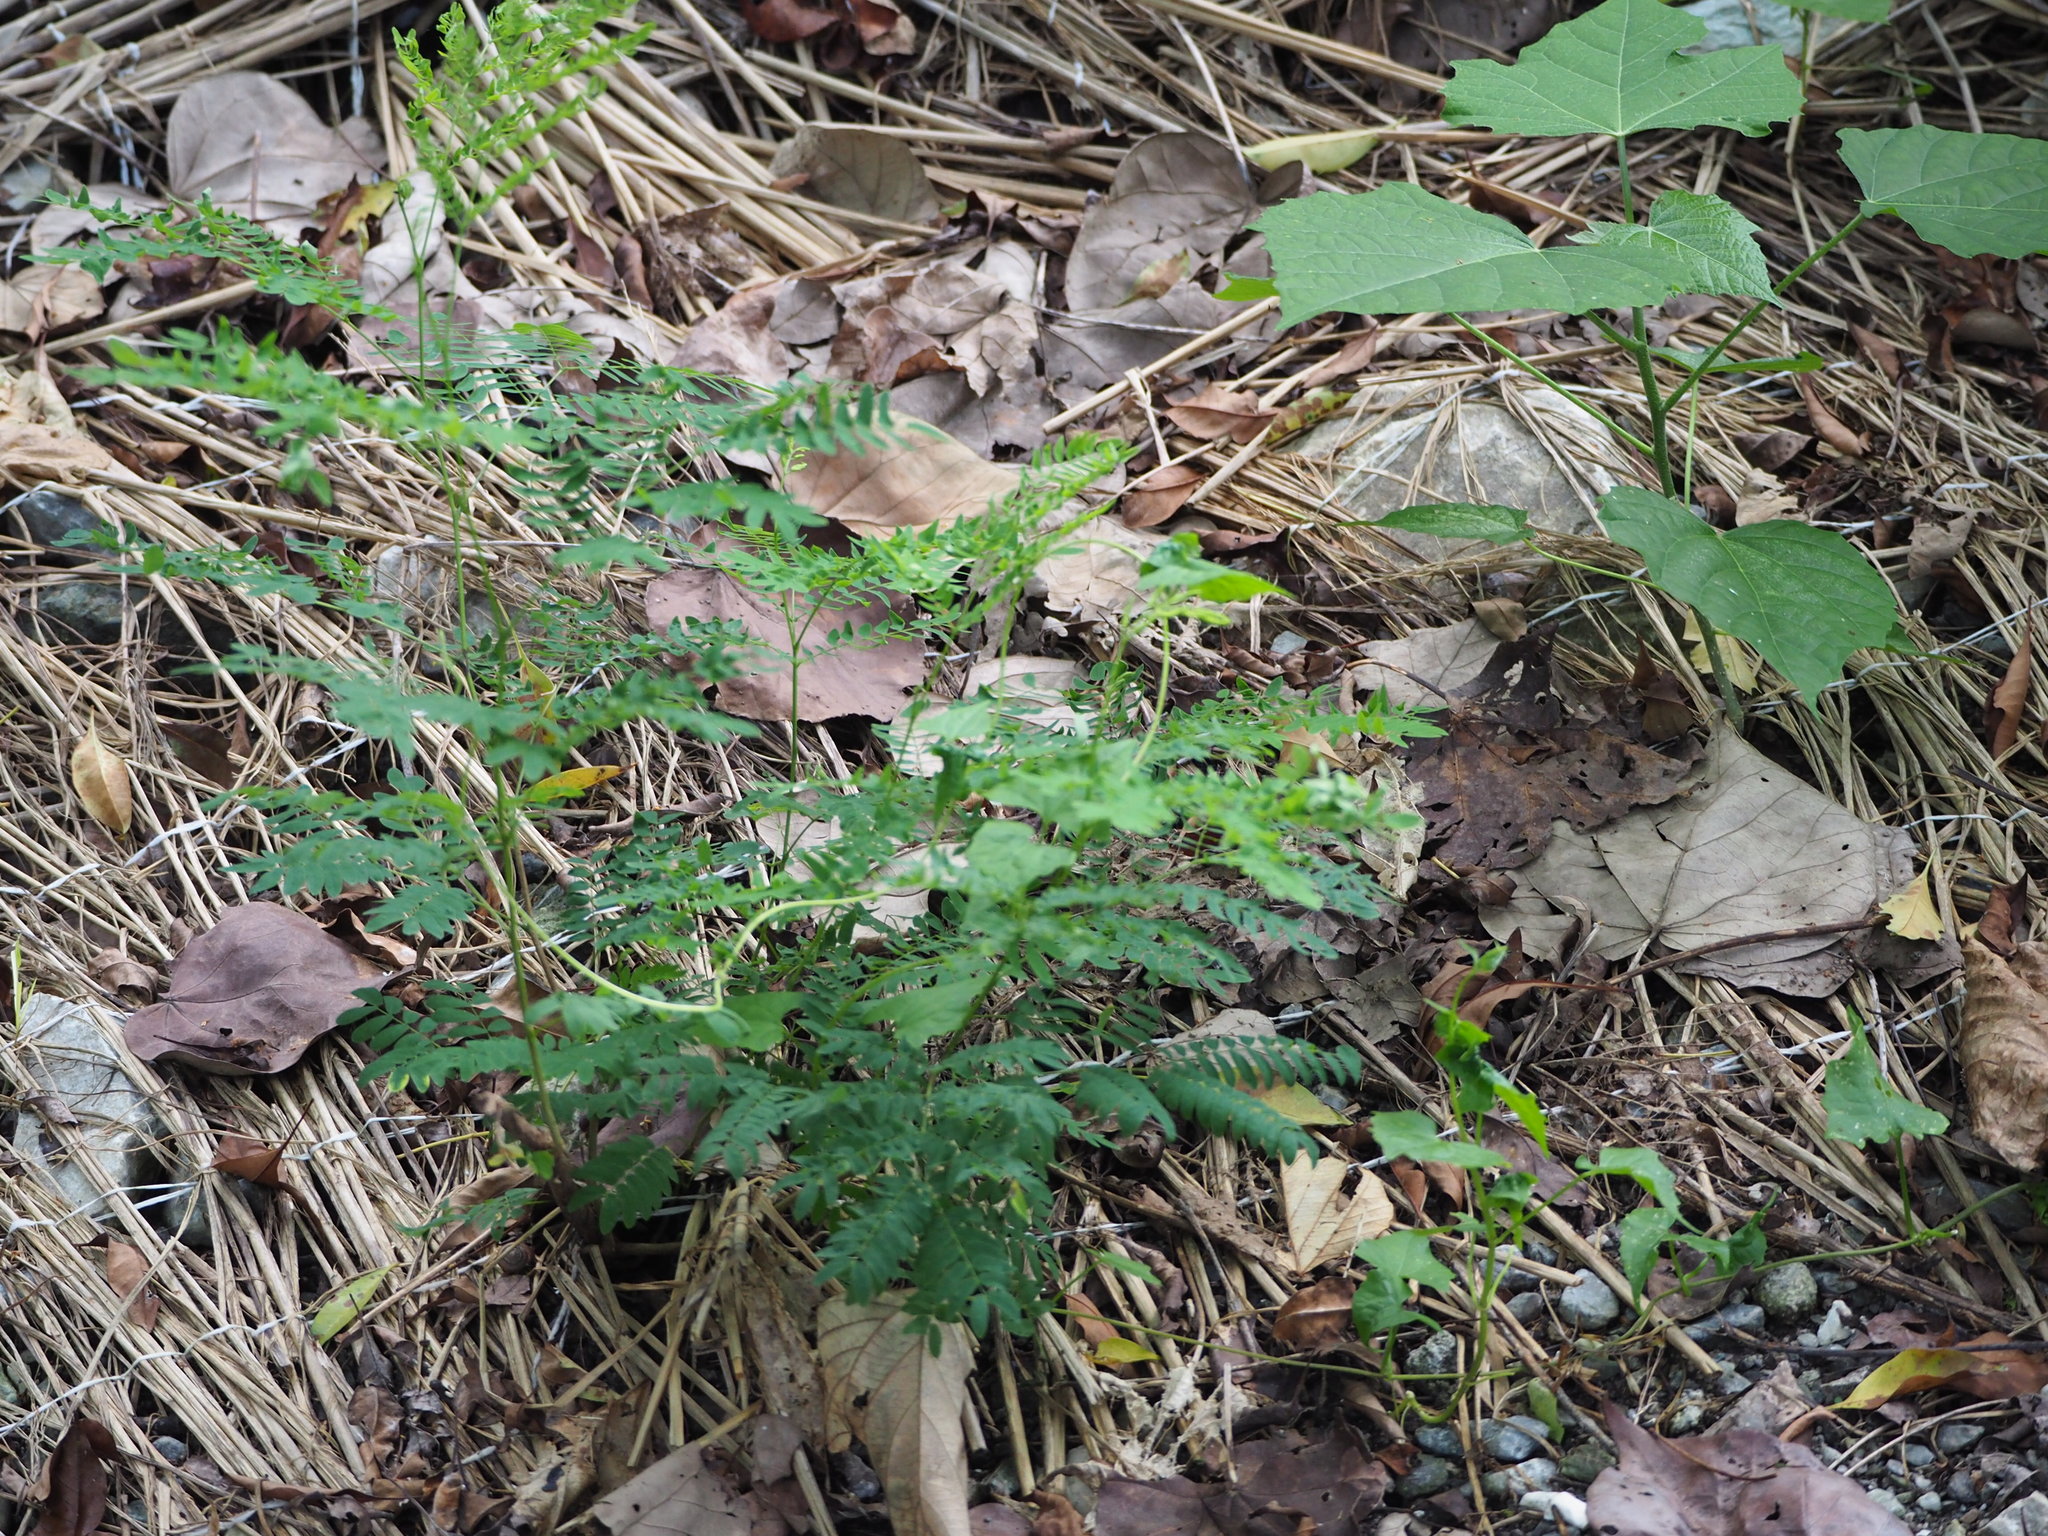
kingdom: Plantae
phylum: Tracheophyta
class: Magnoliopsida
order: Fabales
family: Fabaceae
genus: Leucaena
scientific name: Leucaena leucocephala
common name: White leadtree
